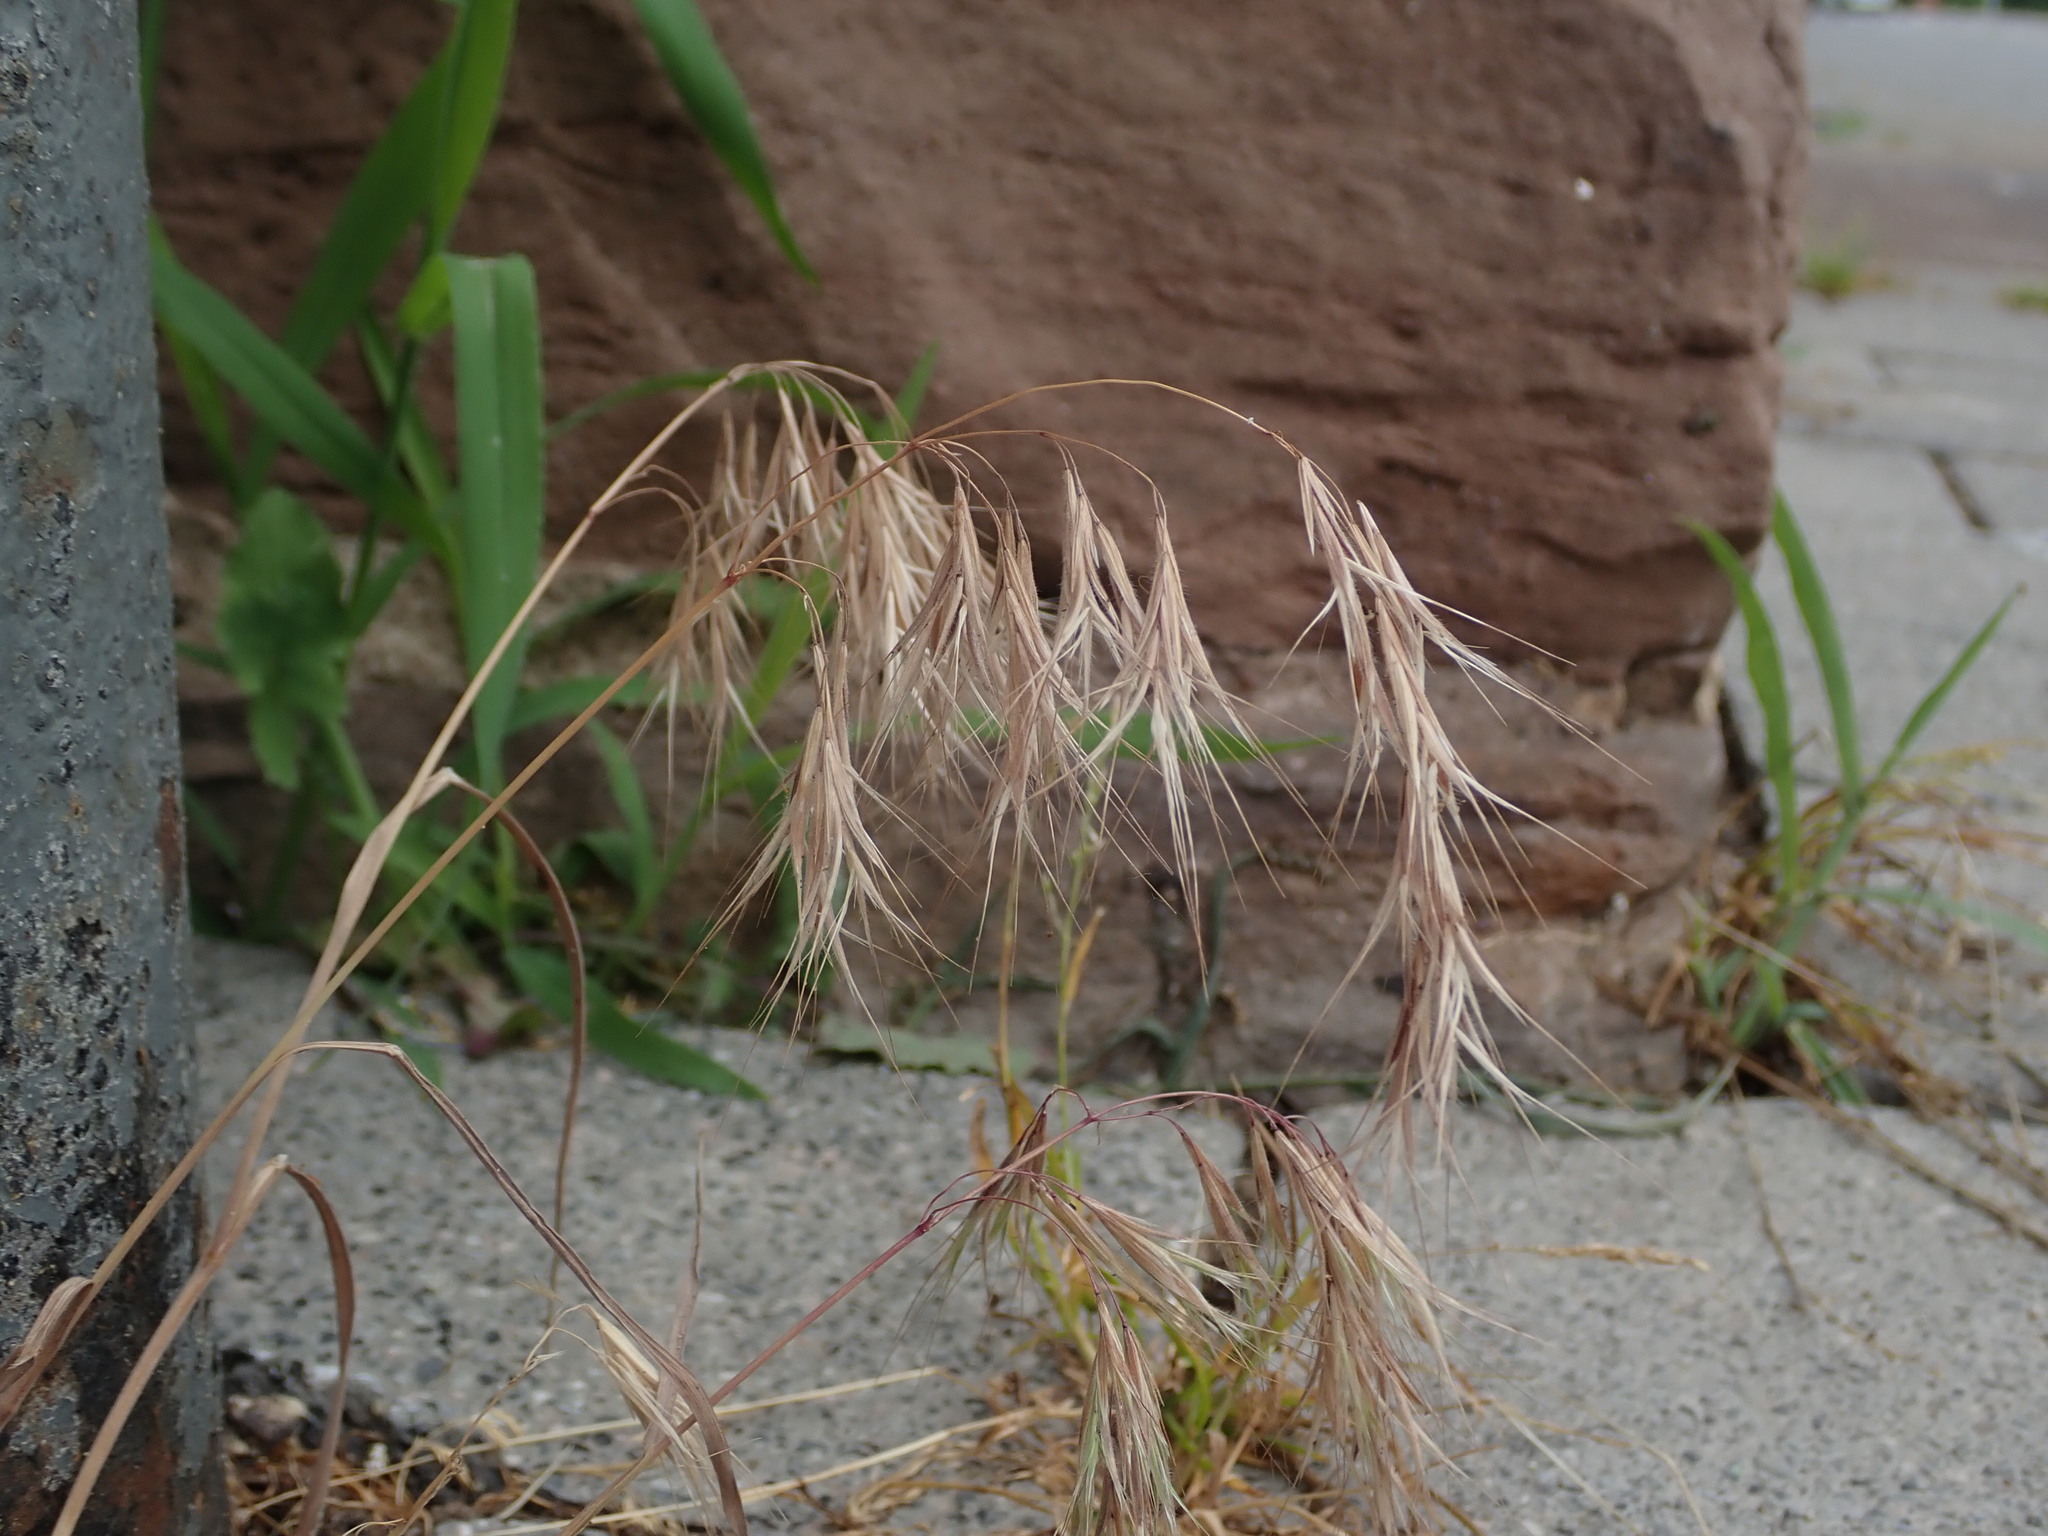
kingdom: Plantae
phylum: Tracheophyta
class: Liliopsida
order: Poales
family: Poaceae
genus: Bromus
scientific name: Bromus tectorum
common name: Cheatgrass
